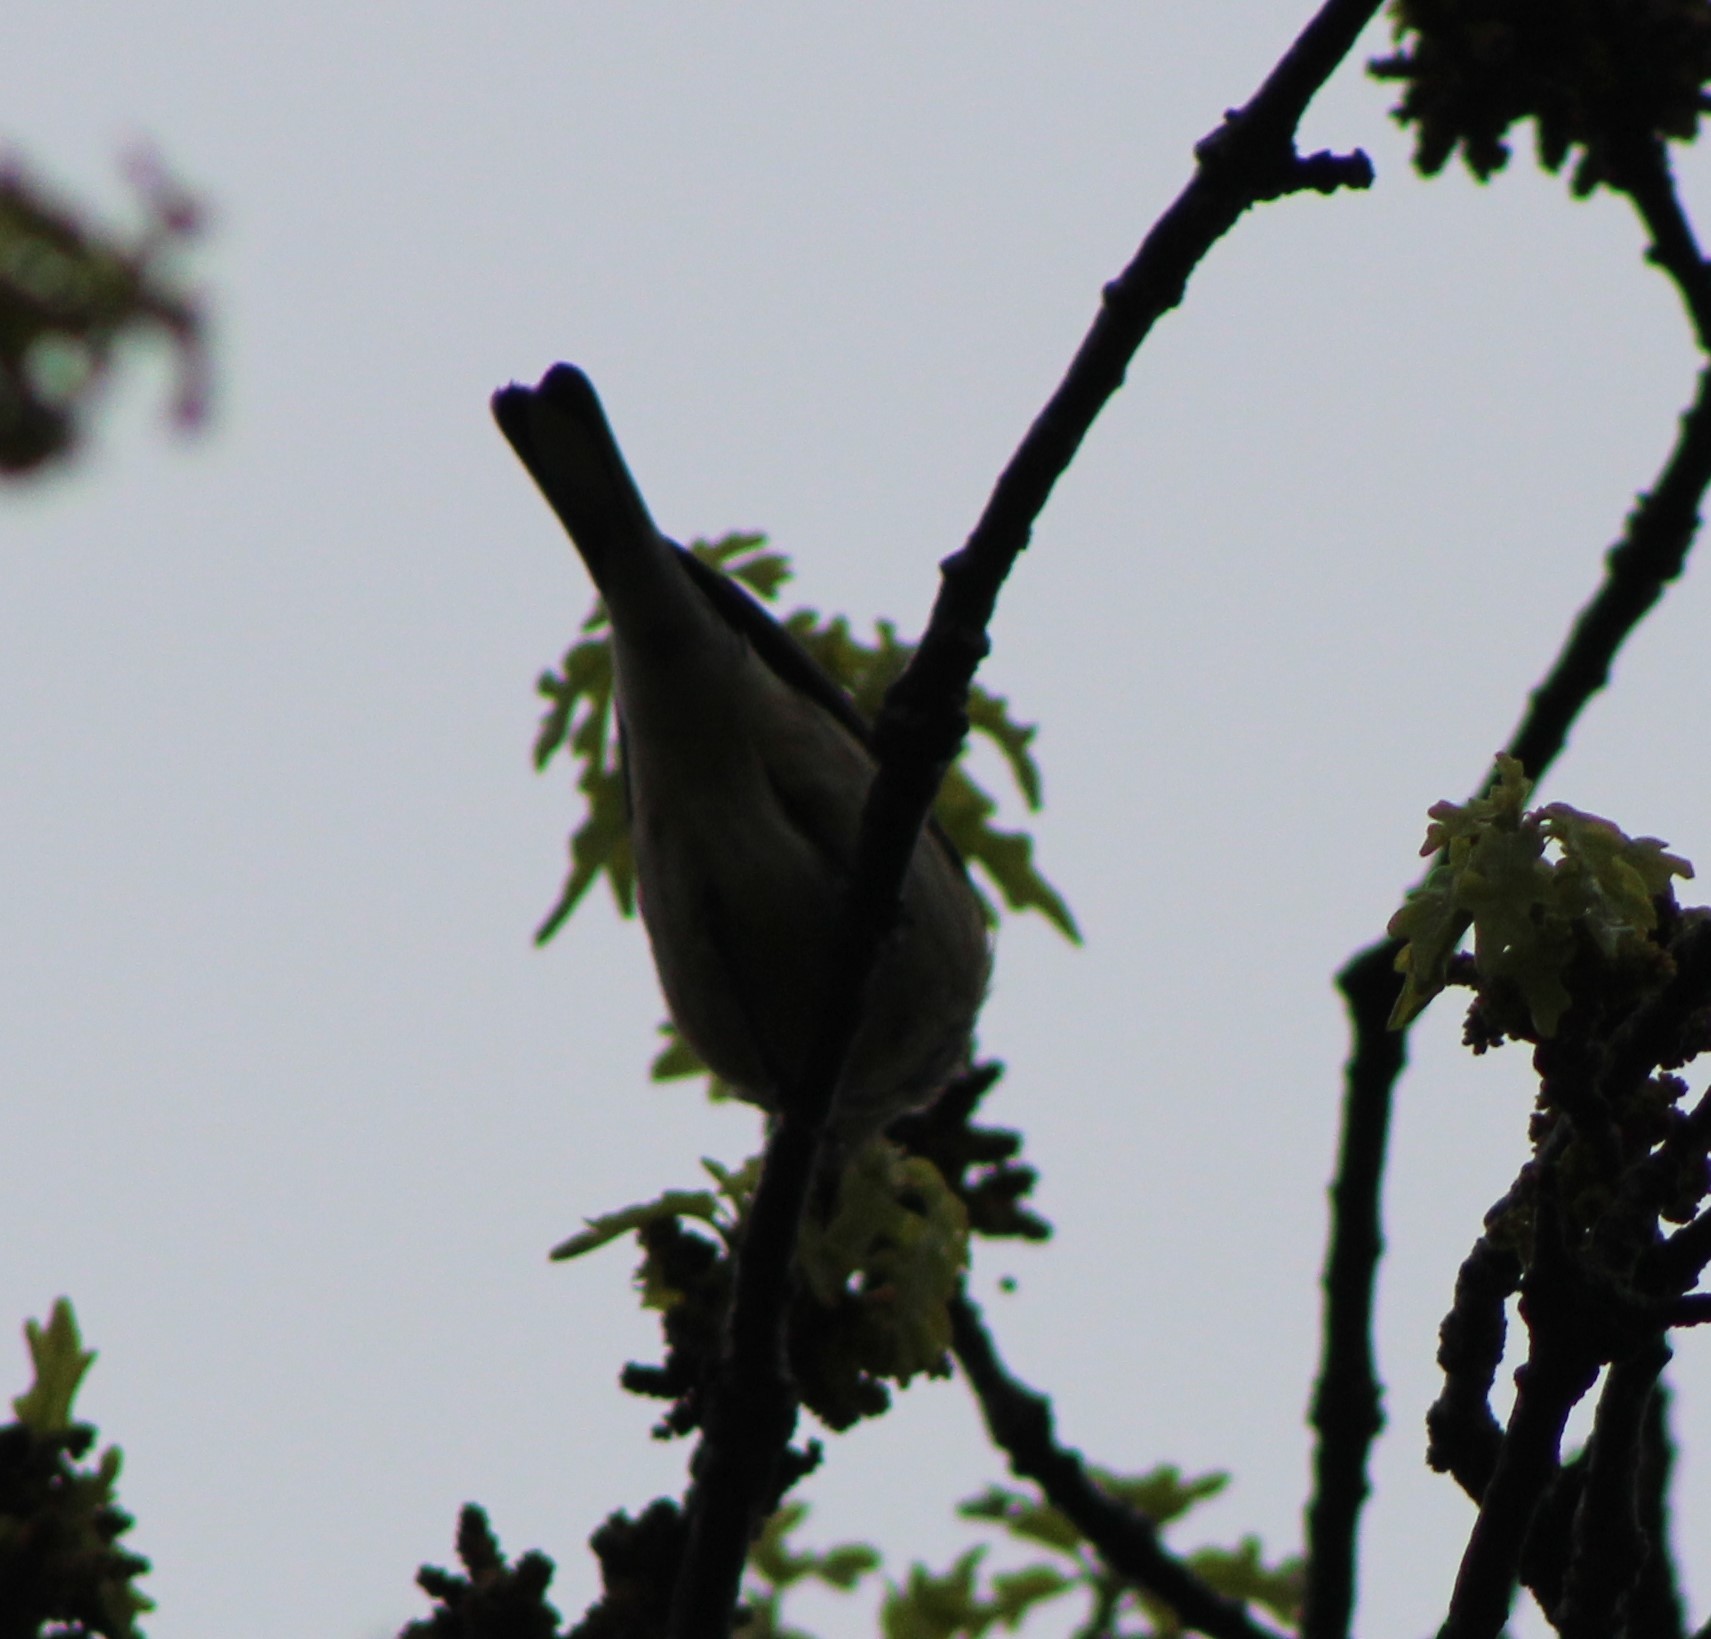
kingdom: Animalia
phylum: Chordata
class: Aves
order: Passeriformes
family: Parulidae
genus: Setophaga
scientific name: Setophaga coronata
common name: Myrtle warbler
